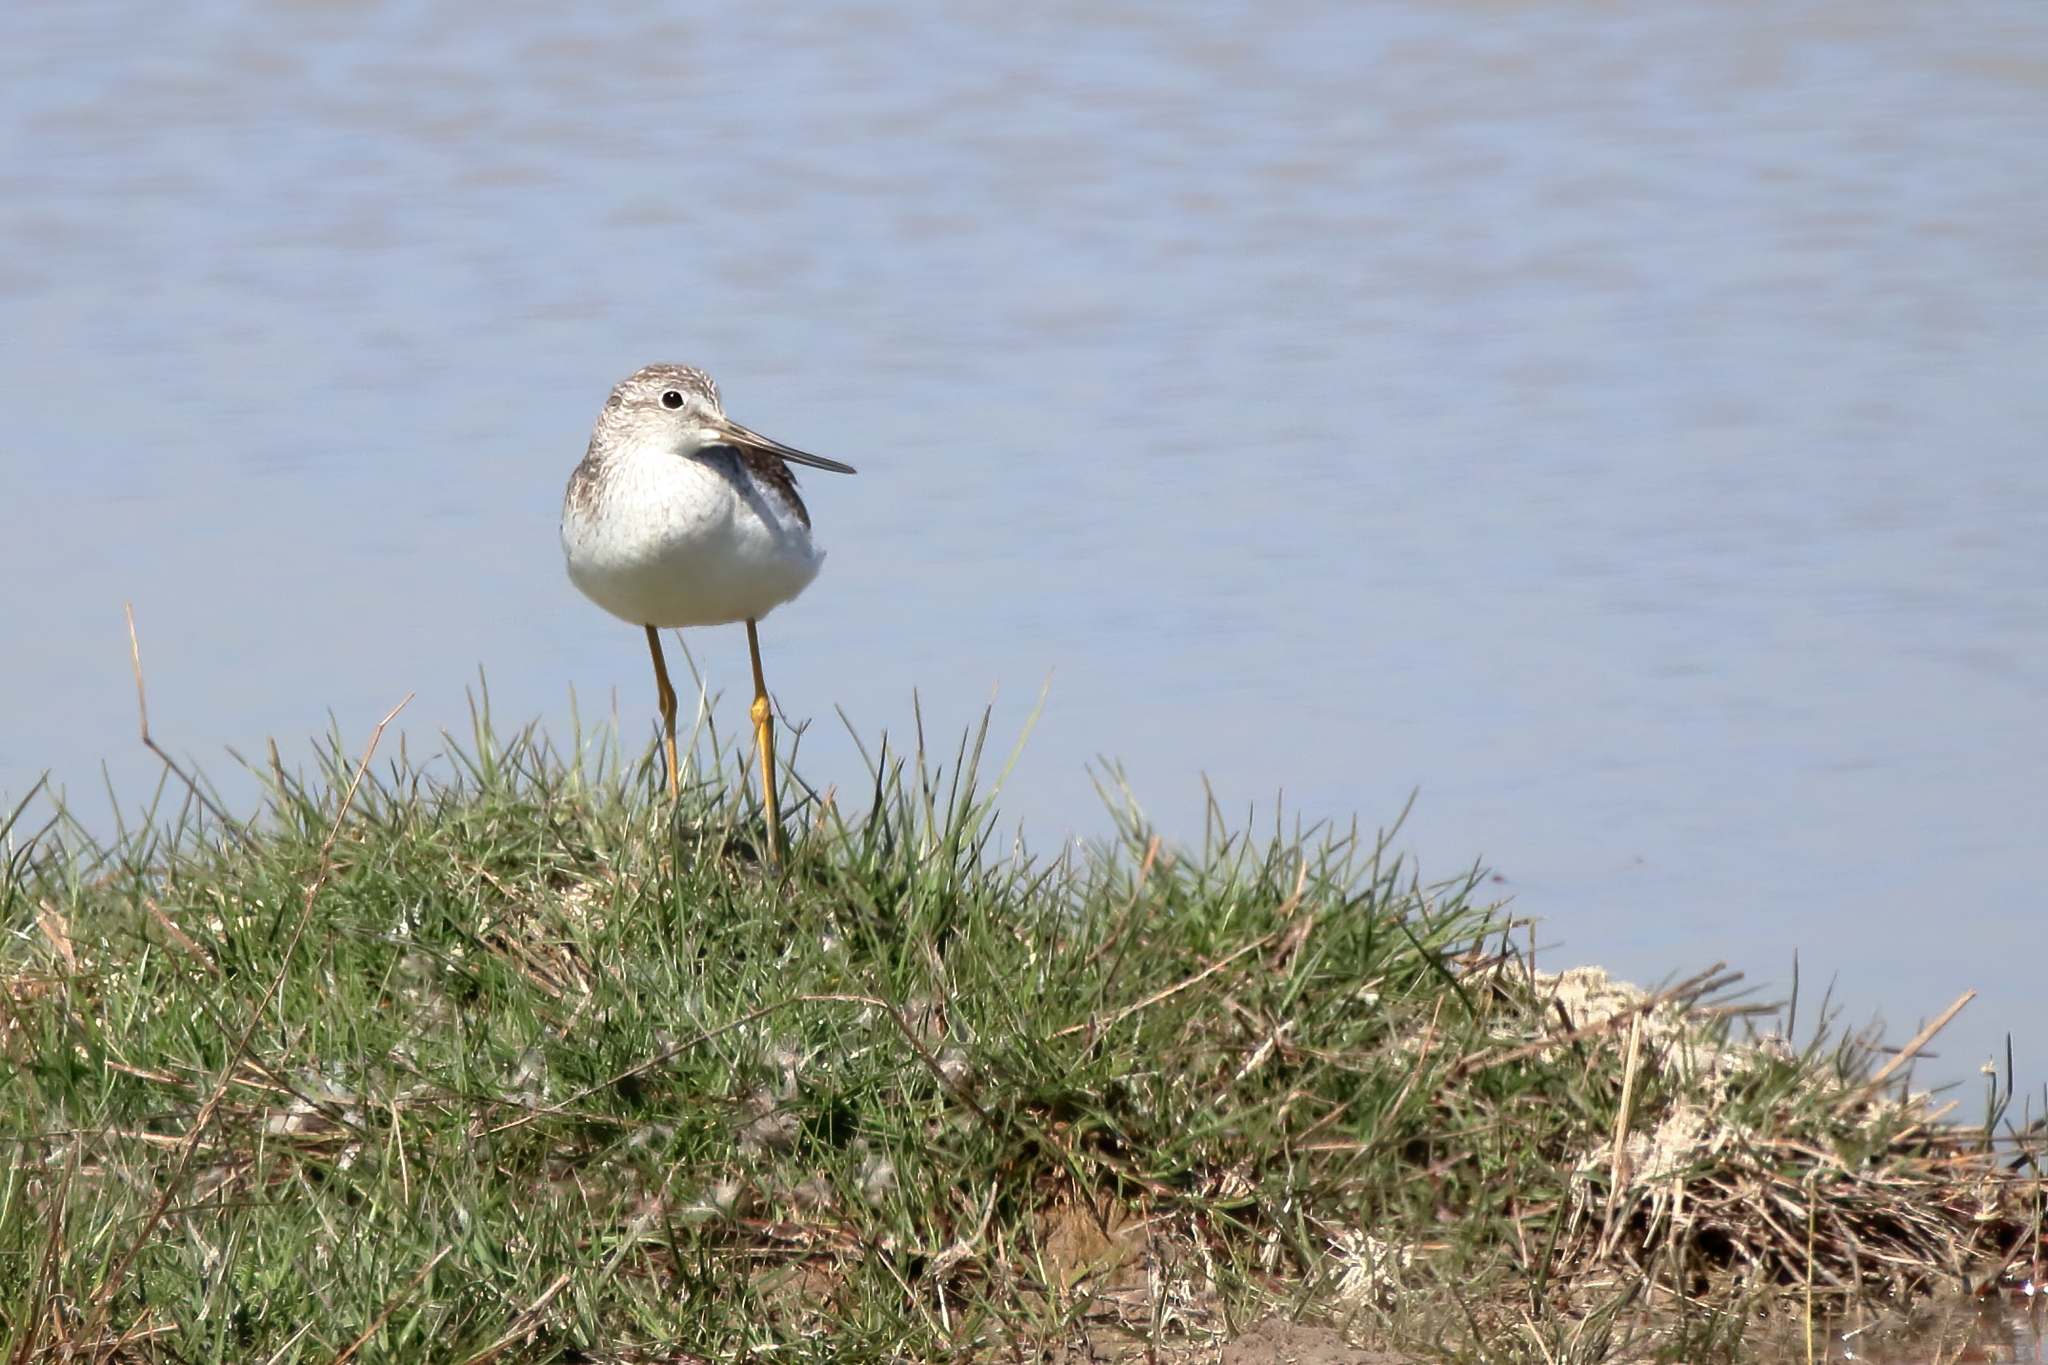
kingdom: Animalia
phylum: Chordata
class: Aves
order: Charadriiformes
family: Scolopacidae
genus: Tringa
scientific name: Tringa melanoleuca
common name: Greater yellowlegs
